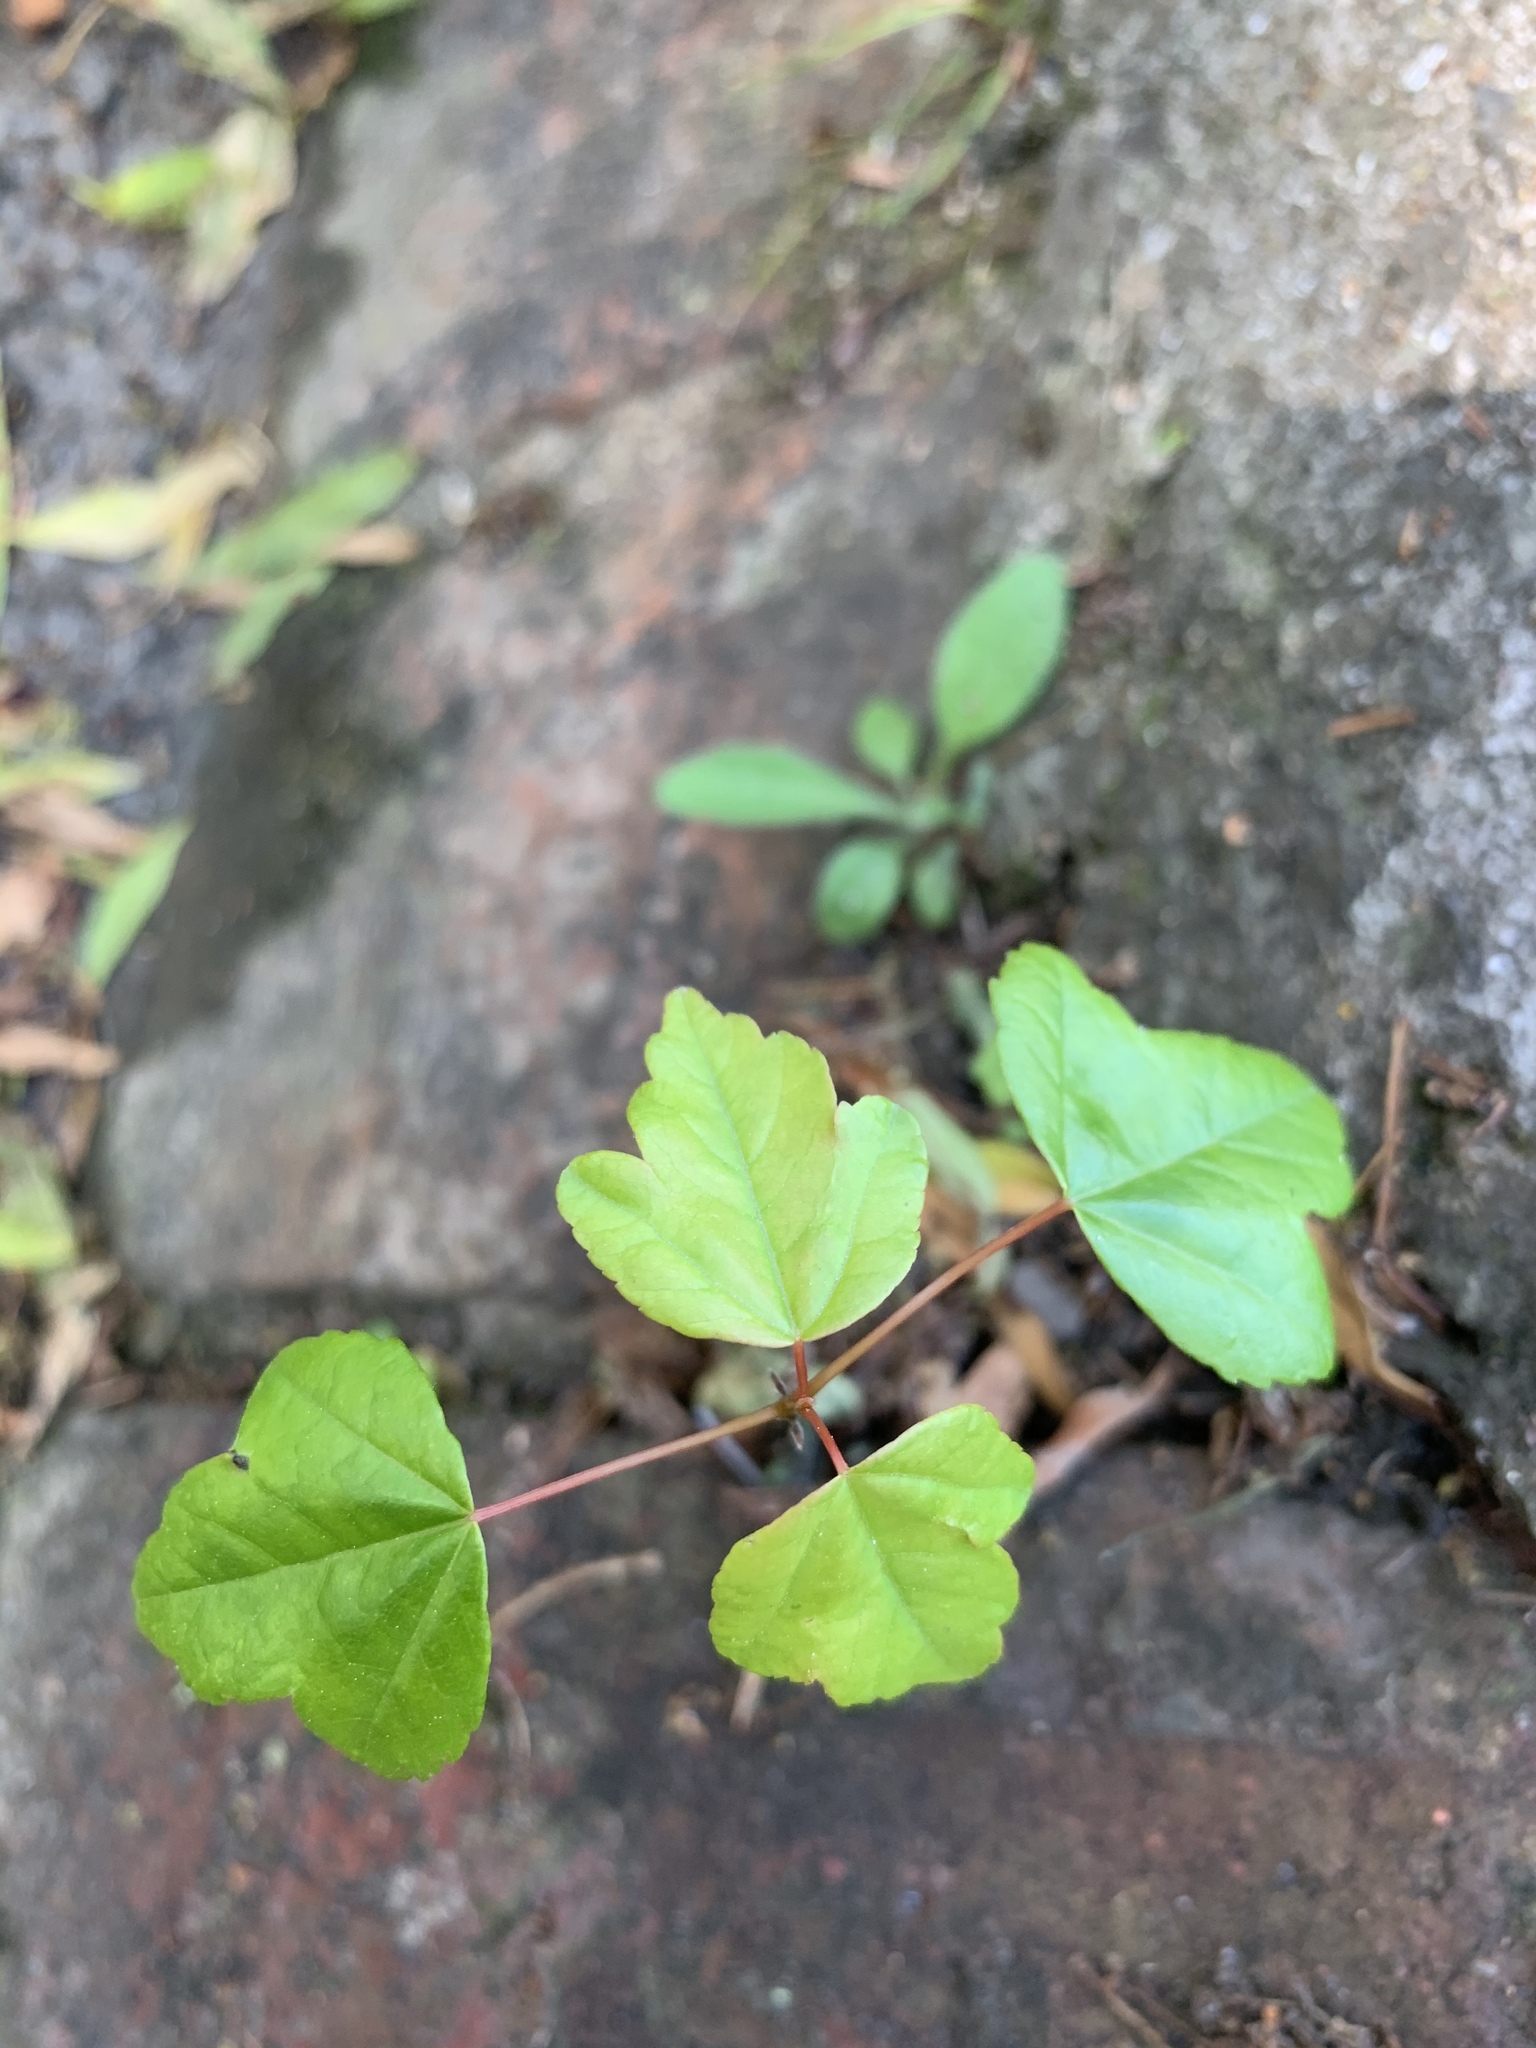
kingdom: Plantae
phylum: Tracheophyta
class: Magnoliopsida
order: Sapindales
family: Sapindaceae
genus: Acer
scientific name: Acer buergerianum
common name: Trident maple
